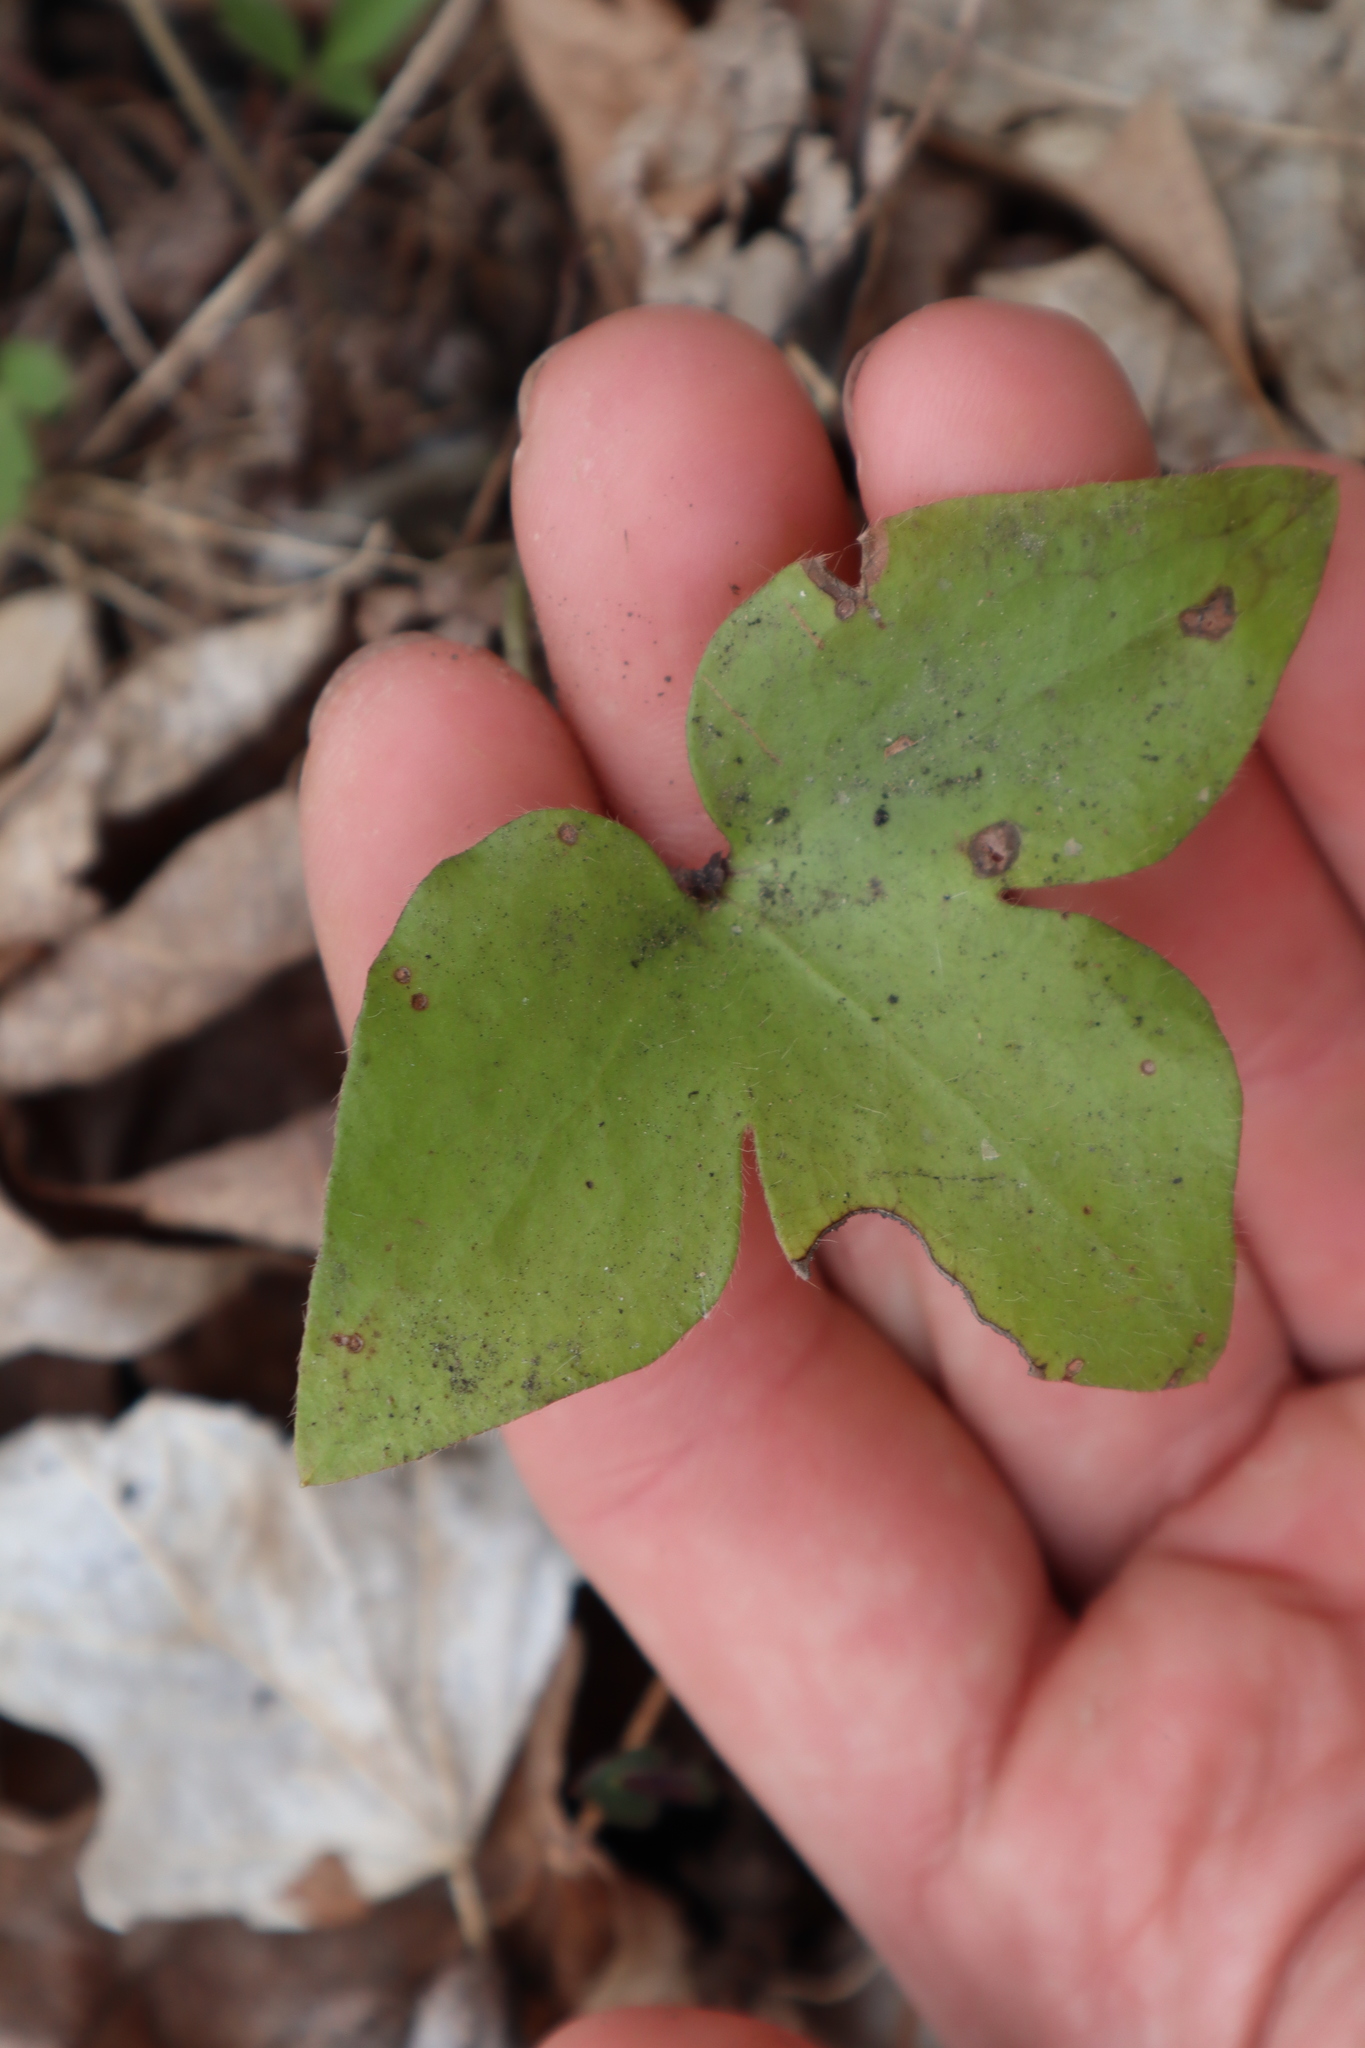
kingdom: Plantae
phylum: Tracheophyta
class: Magnoliopsida
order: Ranunculales
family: Ranunculaceae
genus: Hepatica
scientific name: Hepatica acutiloba
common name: Sharp-lobed hepatica
